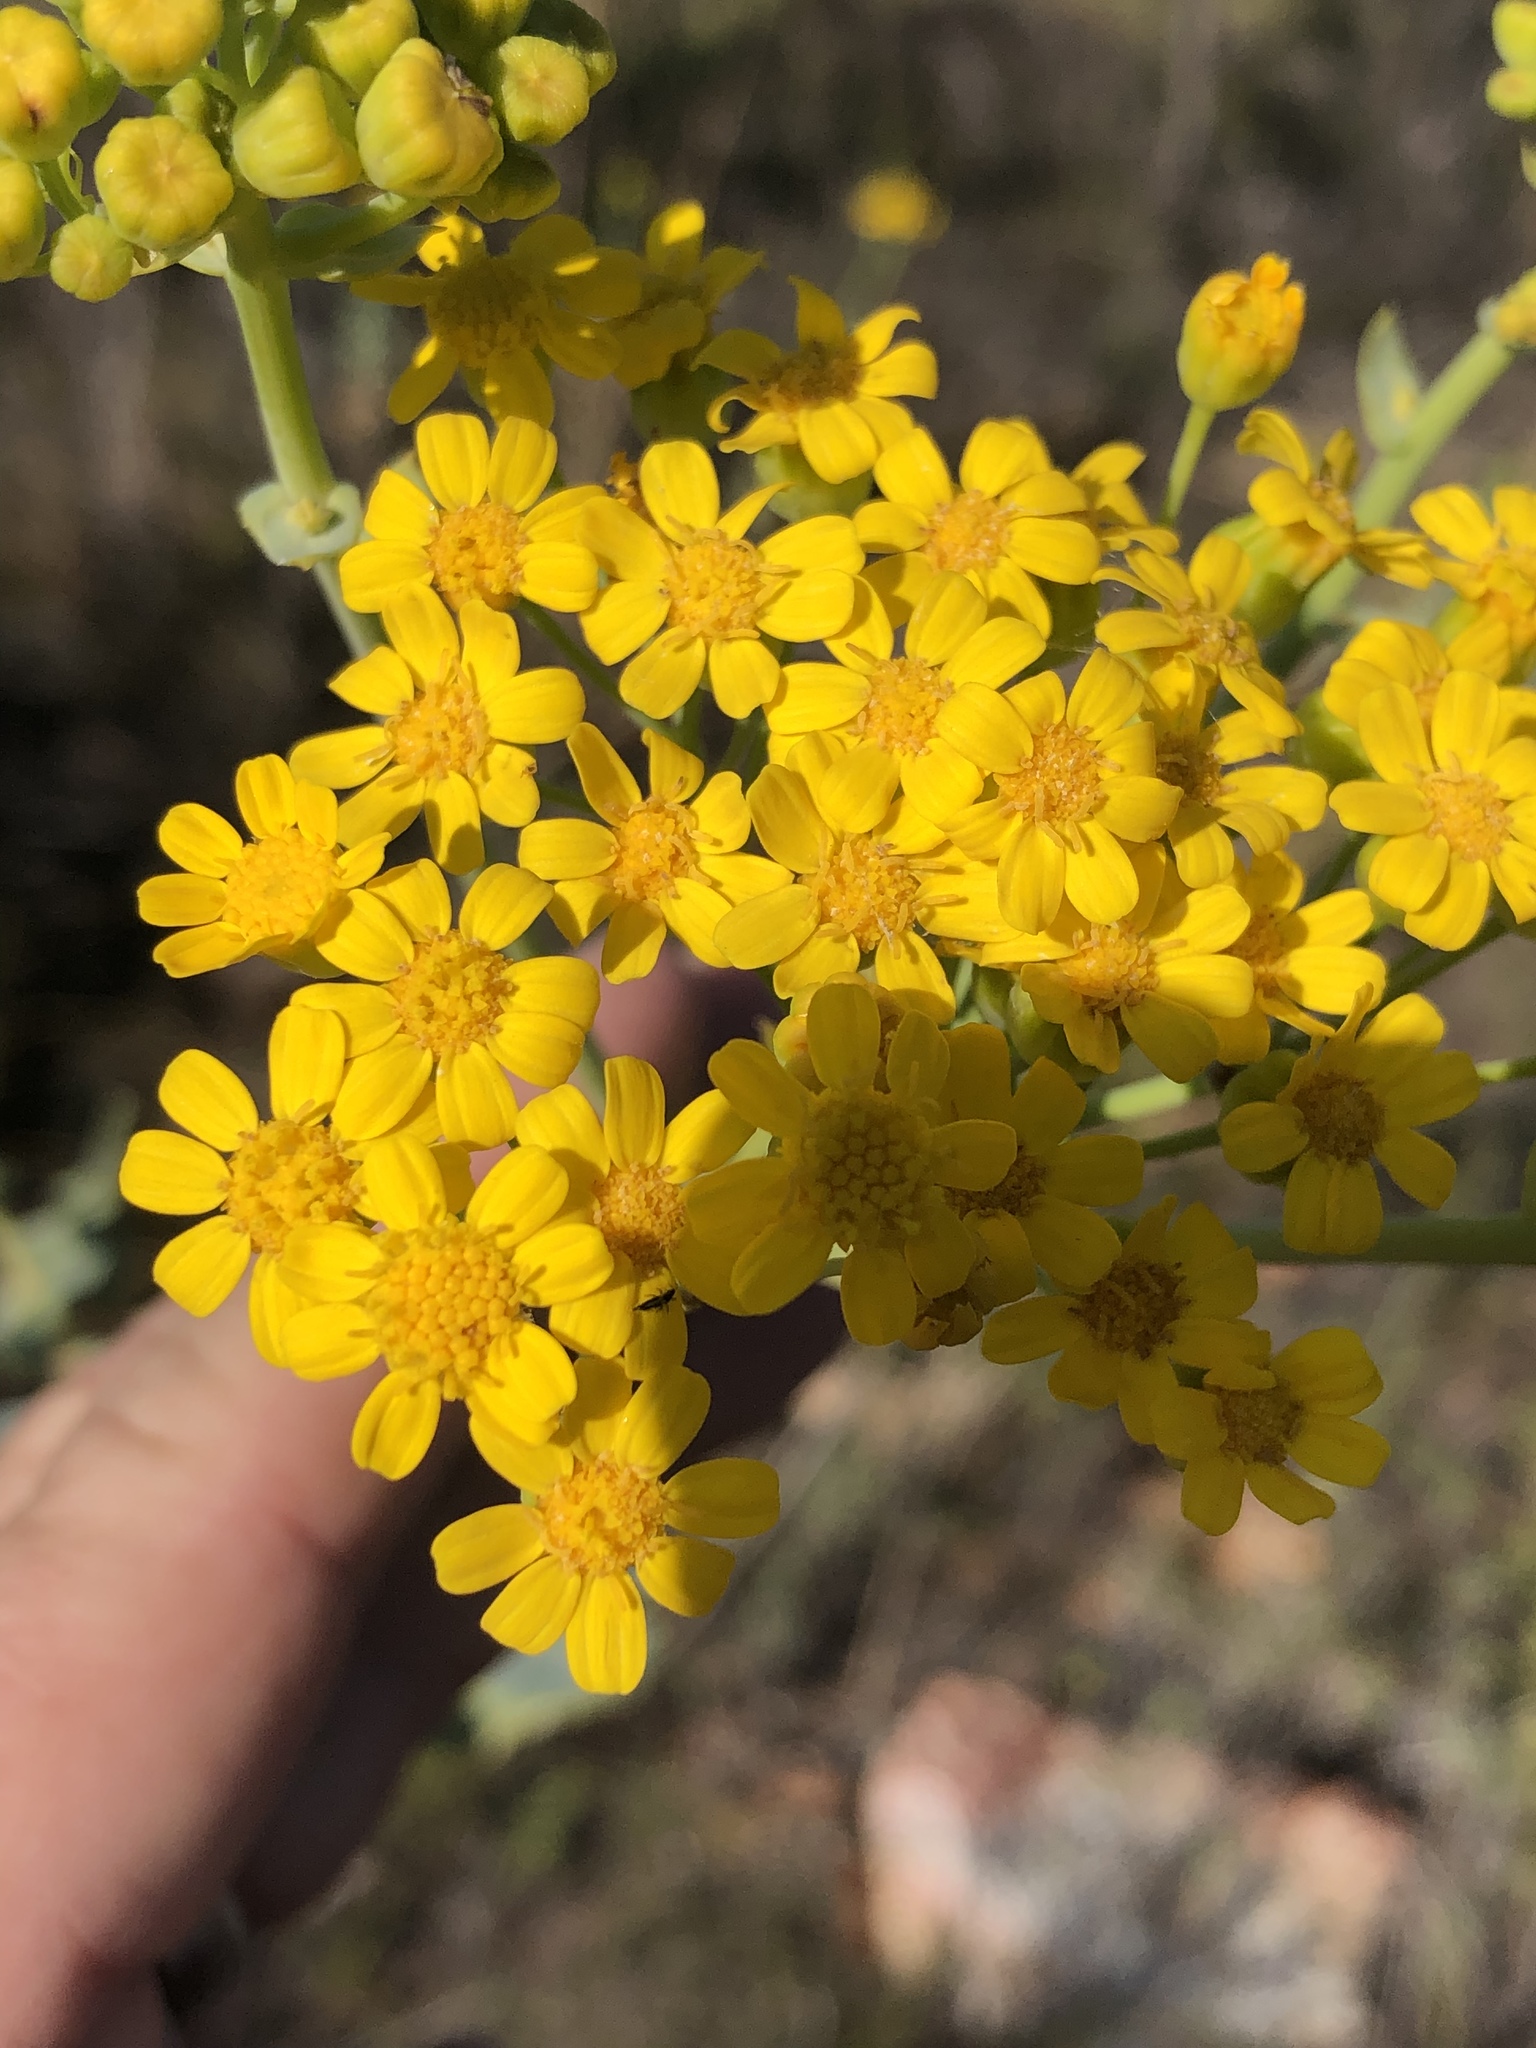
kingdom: Plantae
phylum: Tracheophyta
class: Magnoliopsida
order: Asterales
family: Asteraceae
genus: Othonna
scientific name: Othonna parviflora
